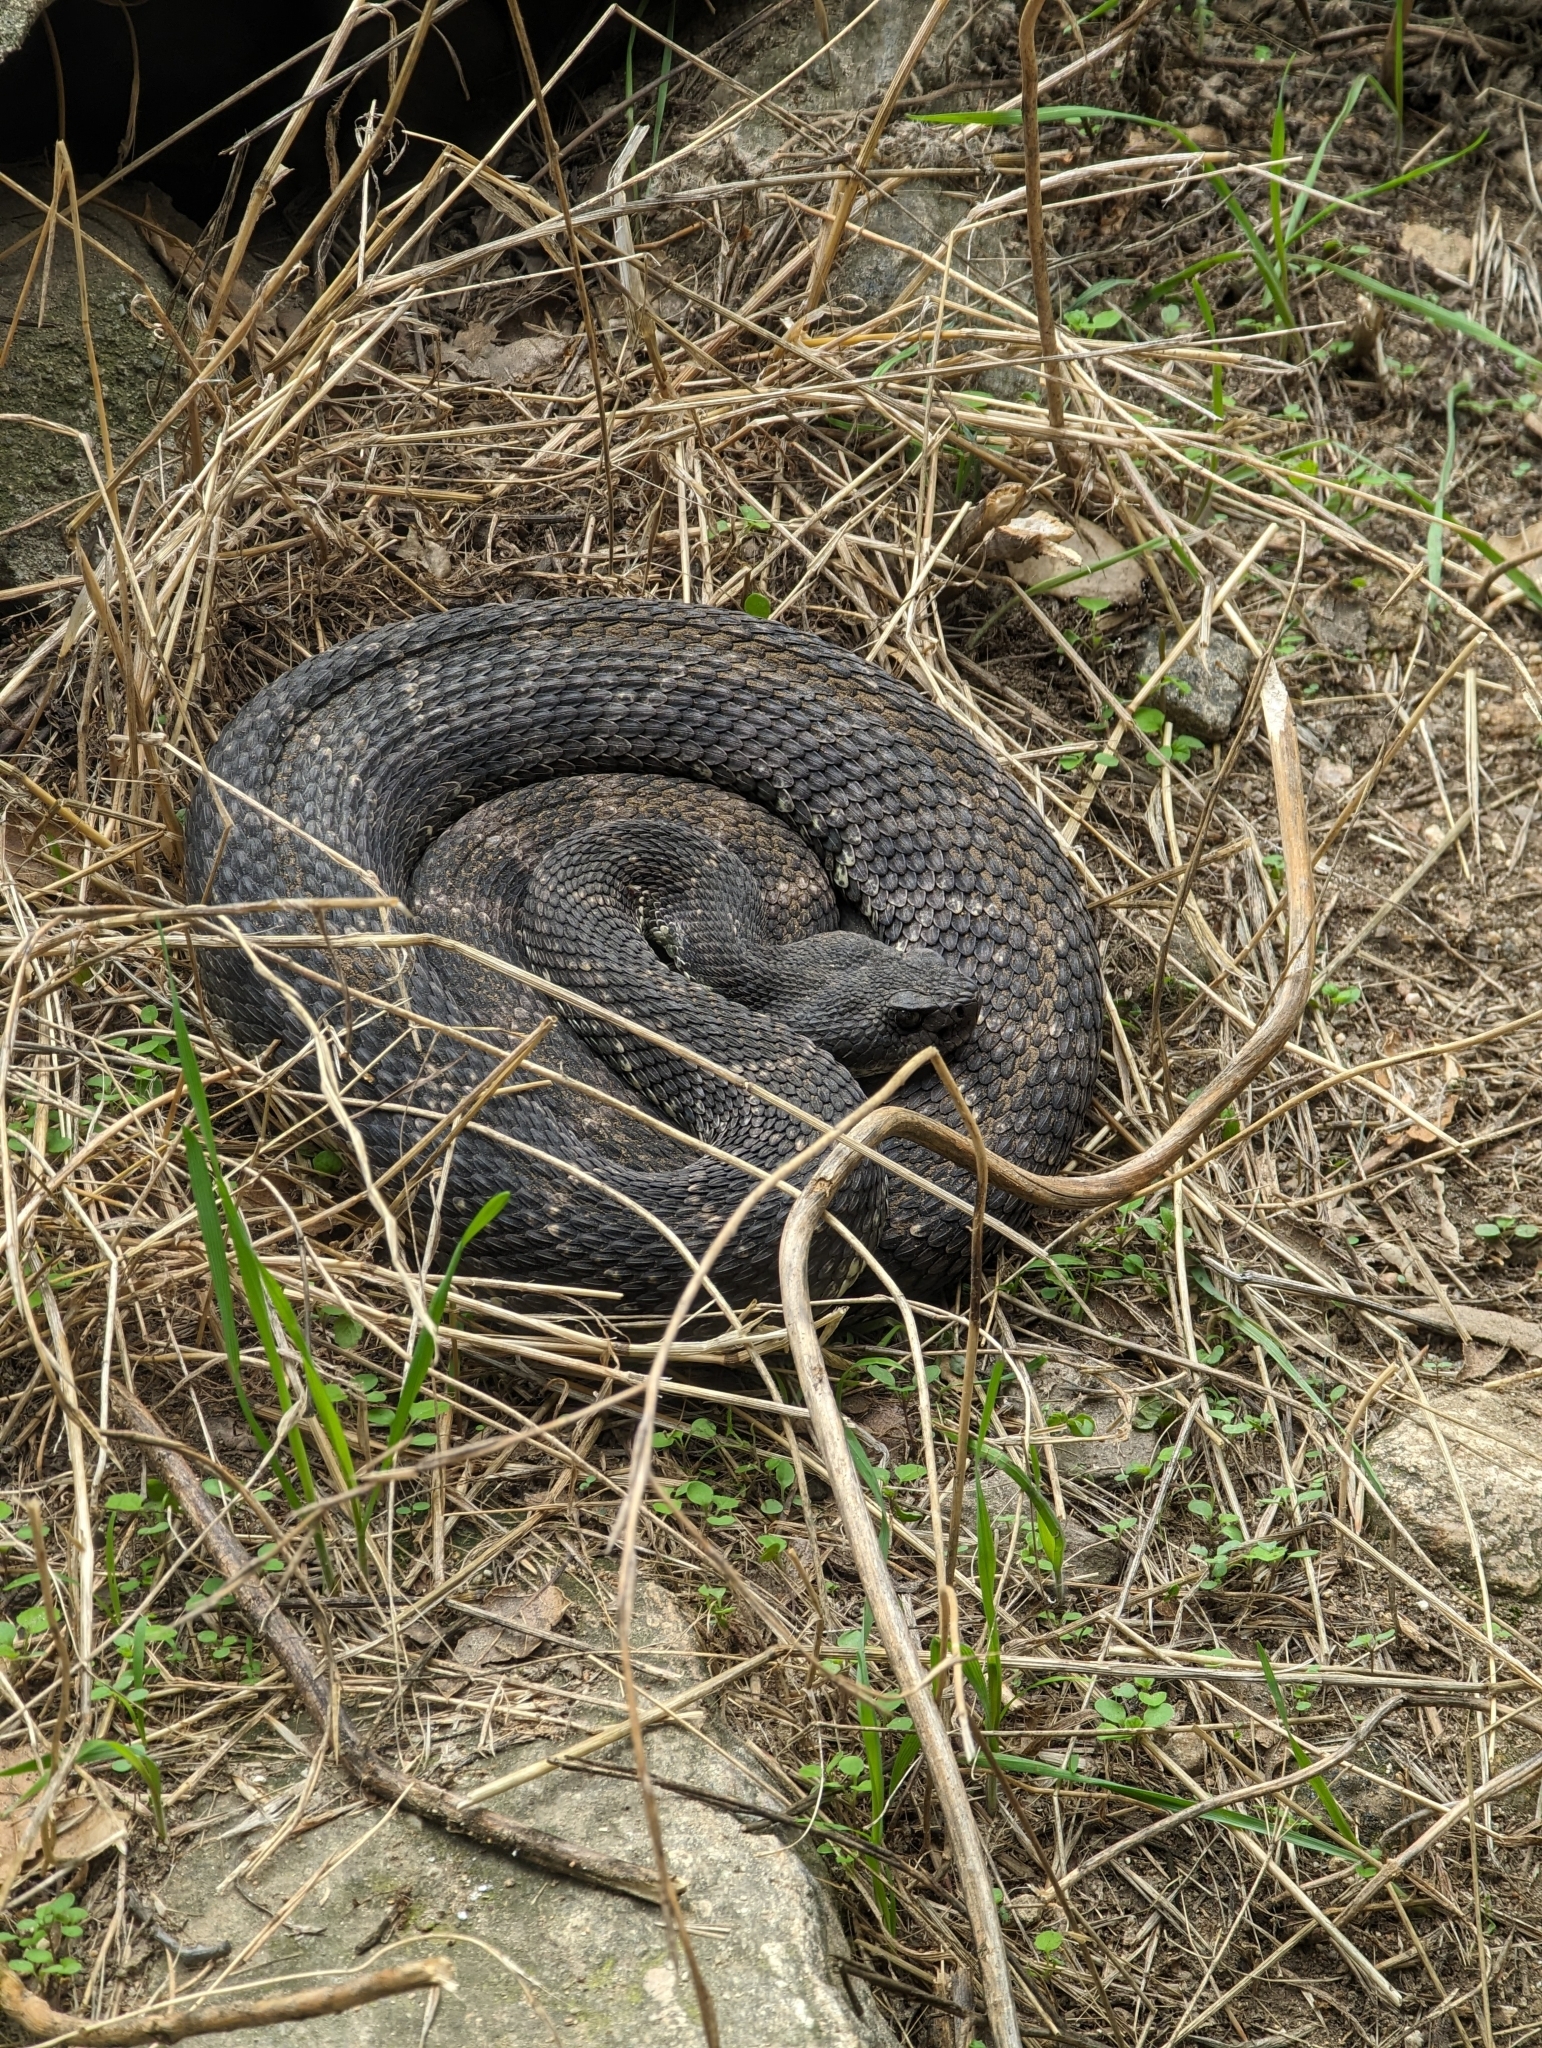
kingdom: Animalia
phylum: Chordata
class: Squamata
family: Viperidae
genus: Crotalus
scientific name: Crotalus oreganus
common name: Abyssus
